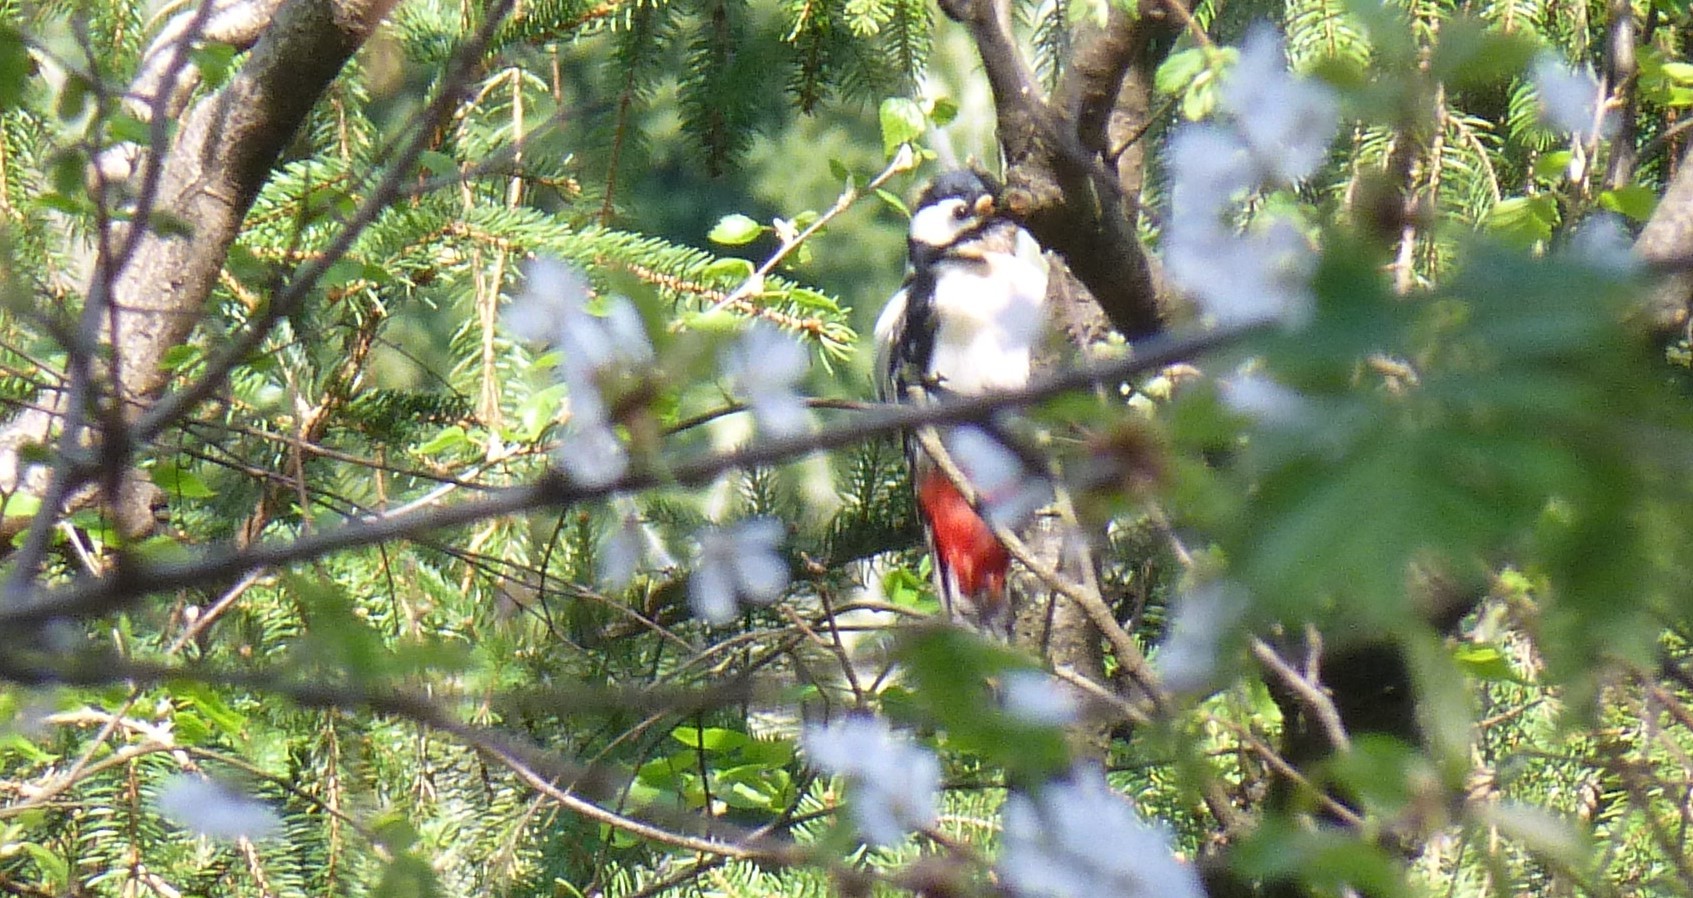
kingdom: Animalia
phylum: Chordata
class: Aves
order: Piciformes
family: Picidae
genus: Dendrocopos
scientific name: Dendrocopos major
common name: Great spotted woodpecker
